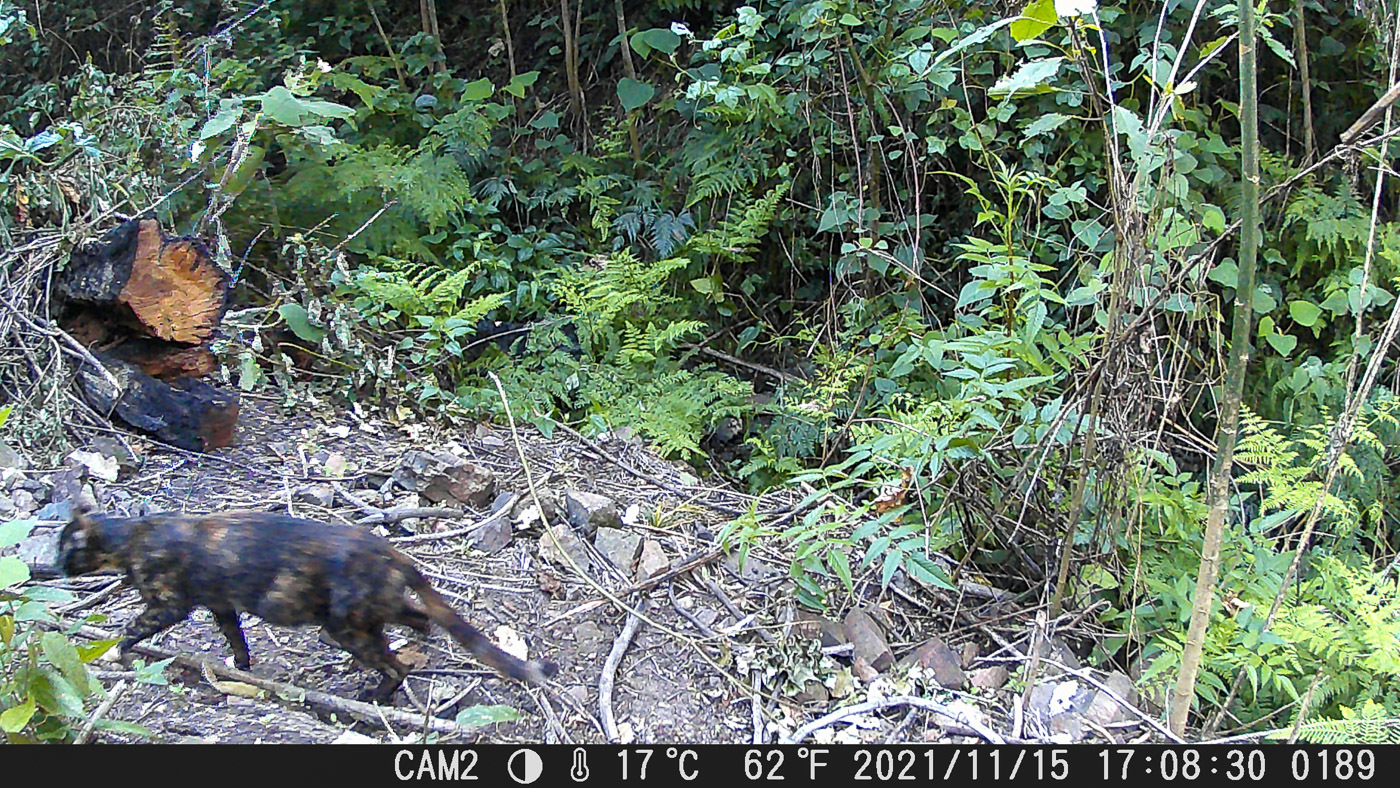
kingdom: Animalia
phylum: Chordata
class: Mammalia
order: Carnivora
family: Felidae
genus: Felis
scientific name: Felis catus
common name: Domestic cat
